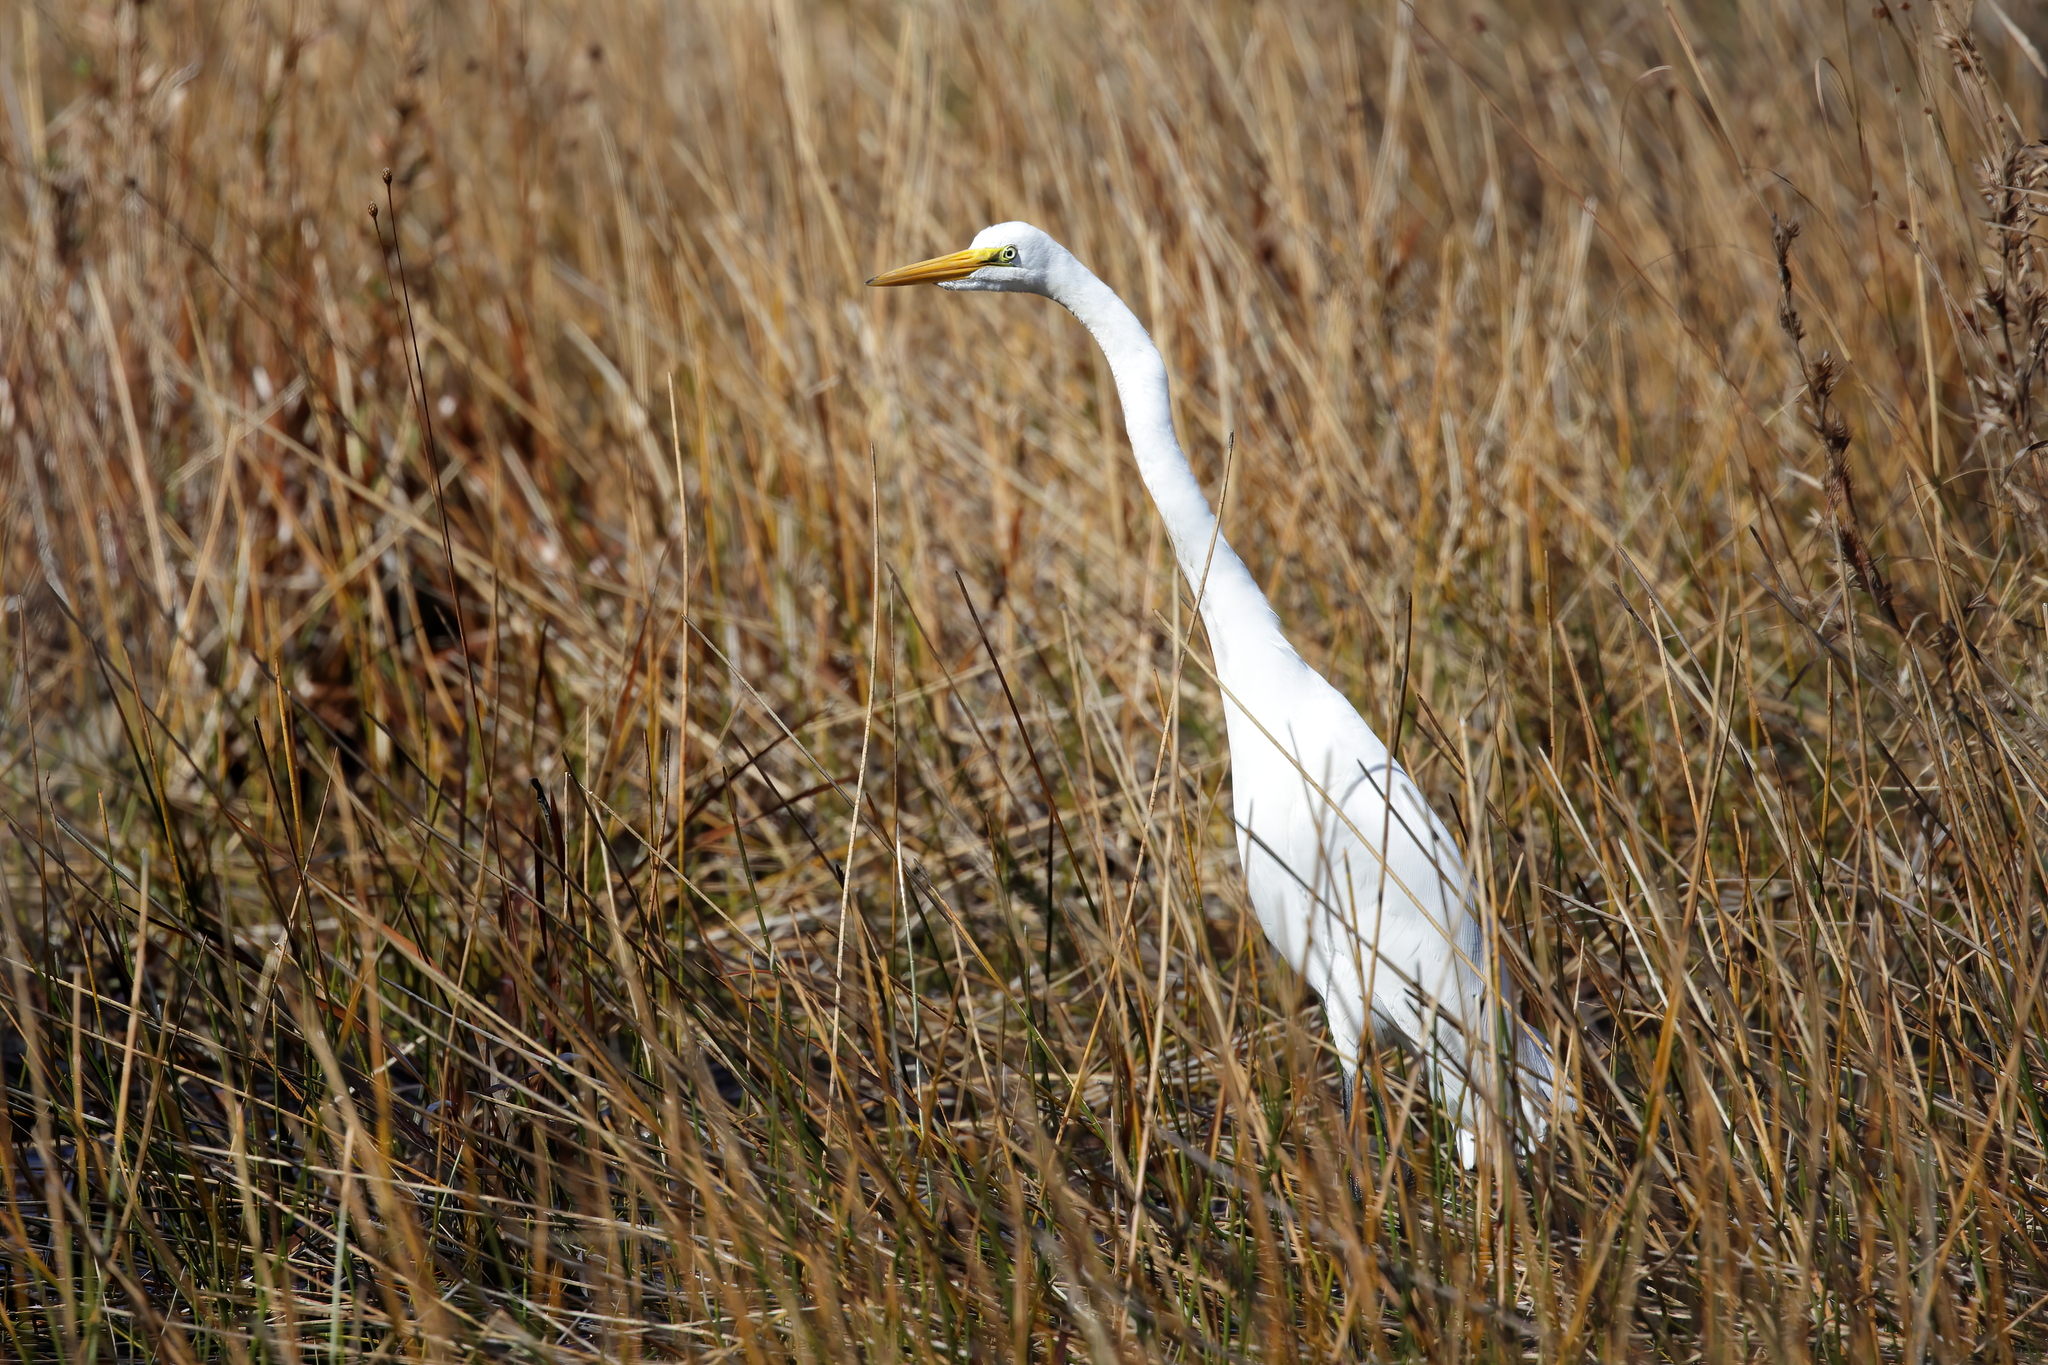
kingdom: Animalia
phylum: Chordata
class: Aves
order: Pelecaniformes
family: Ardeidae
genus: Ardea
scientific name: Ardea alba
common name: Great egret
